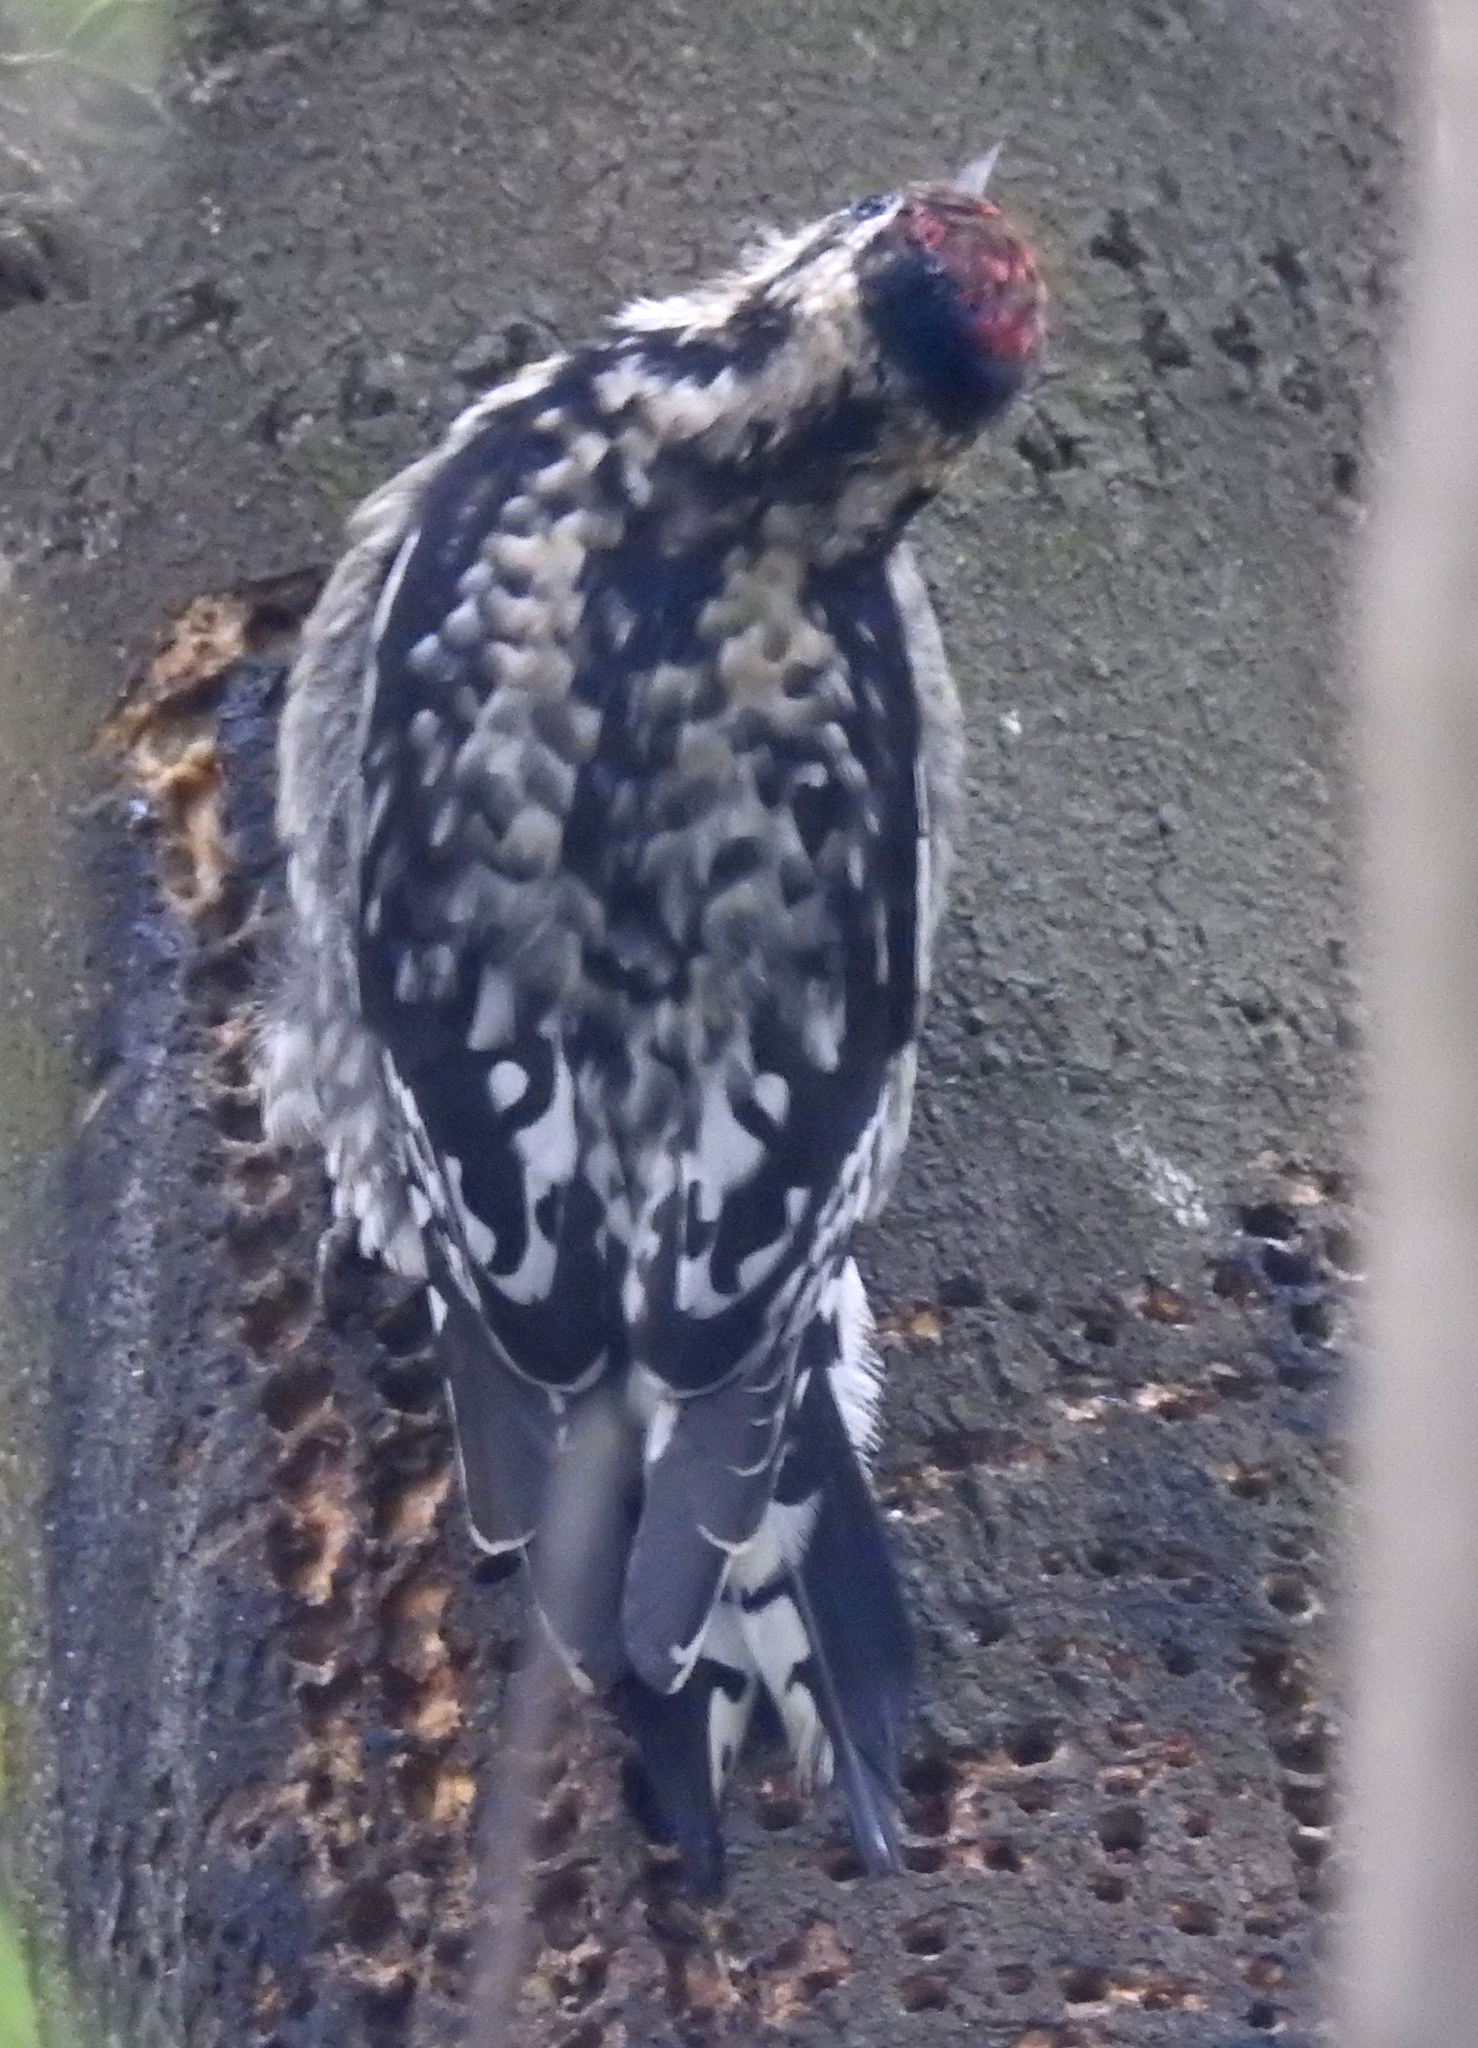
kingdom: Animalia
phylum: Chordata
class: Aves
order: Piciformes
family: Picidae
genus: Sphyrapicus
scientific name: Sphyrapicus varius
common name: Yellow-bellied sapsucker
